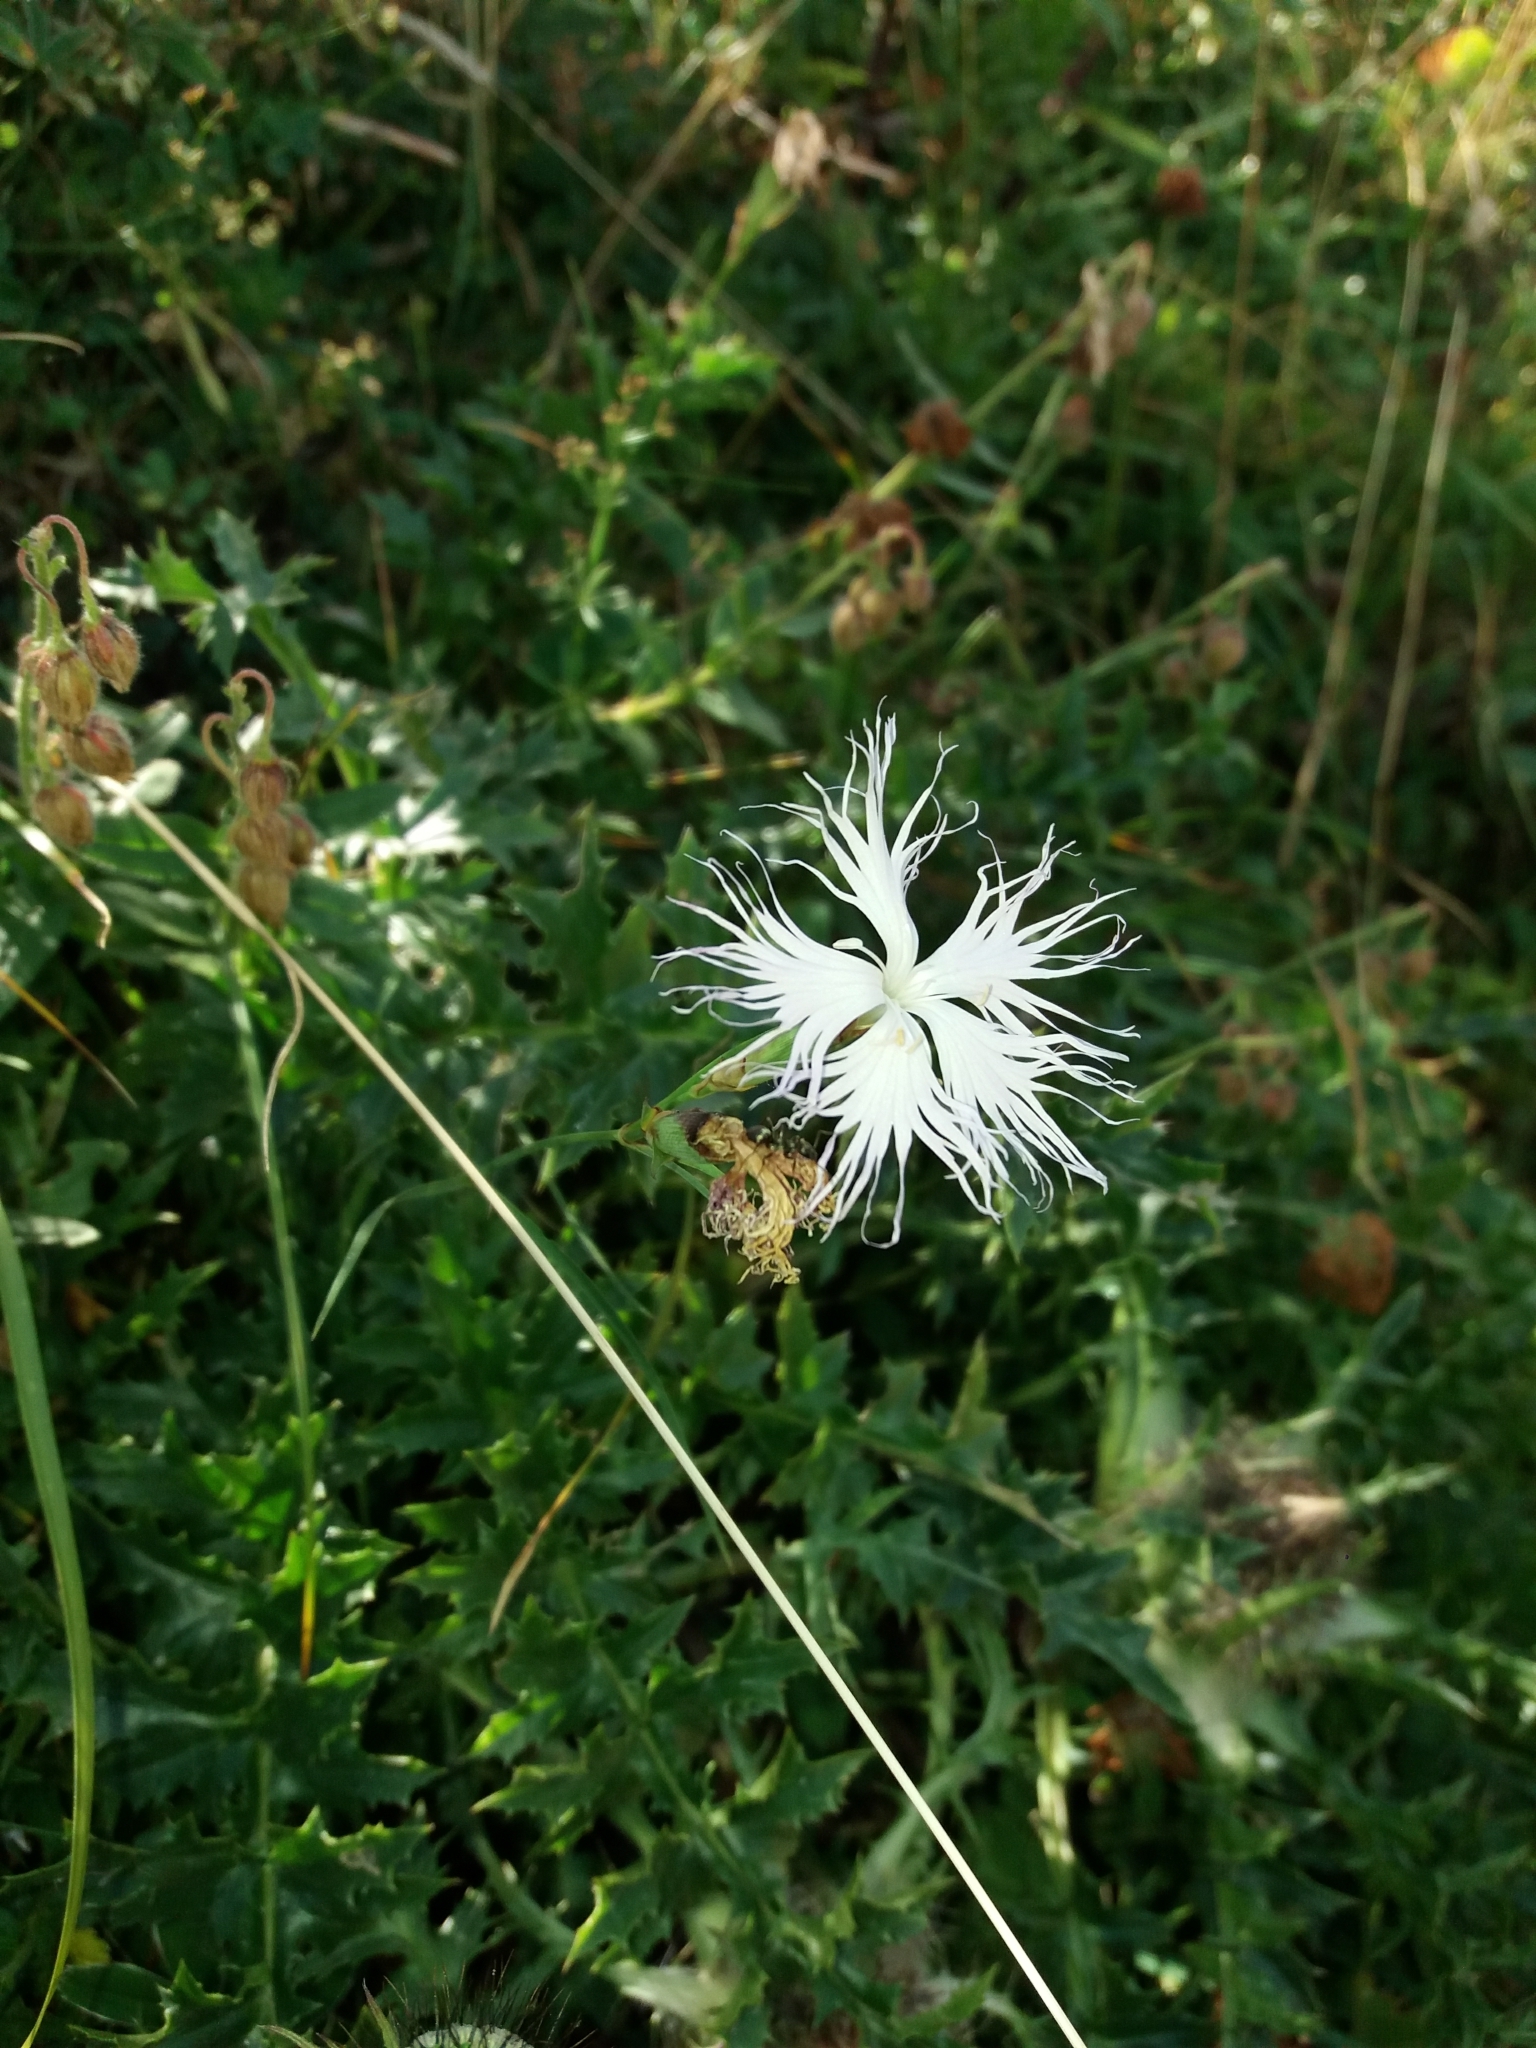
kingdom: Plantae
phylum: Tracheophyta
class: Magnoliopsida
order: Caryophyllales
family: Caryophyllaceae
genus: Dianthus
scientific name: Dianthus hyssopifolius
